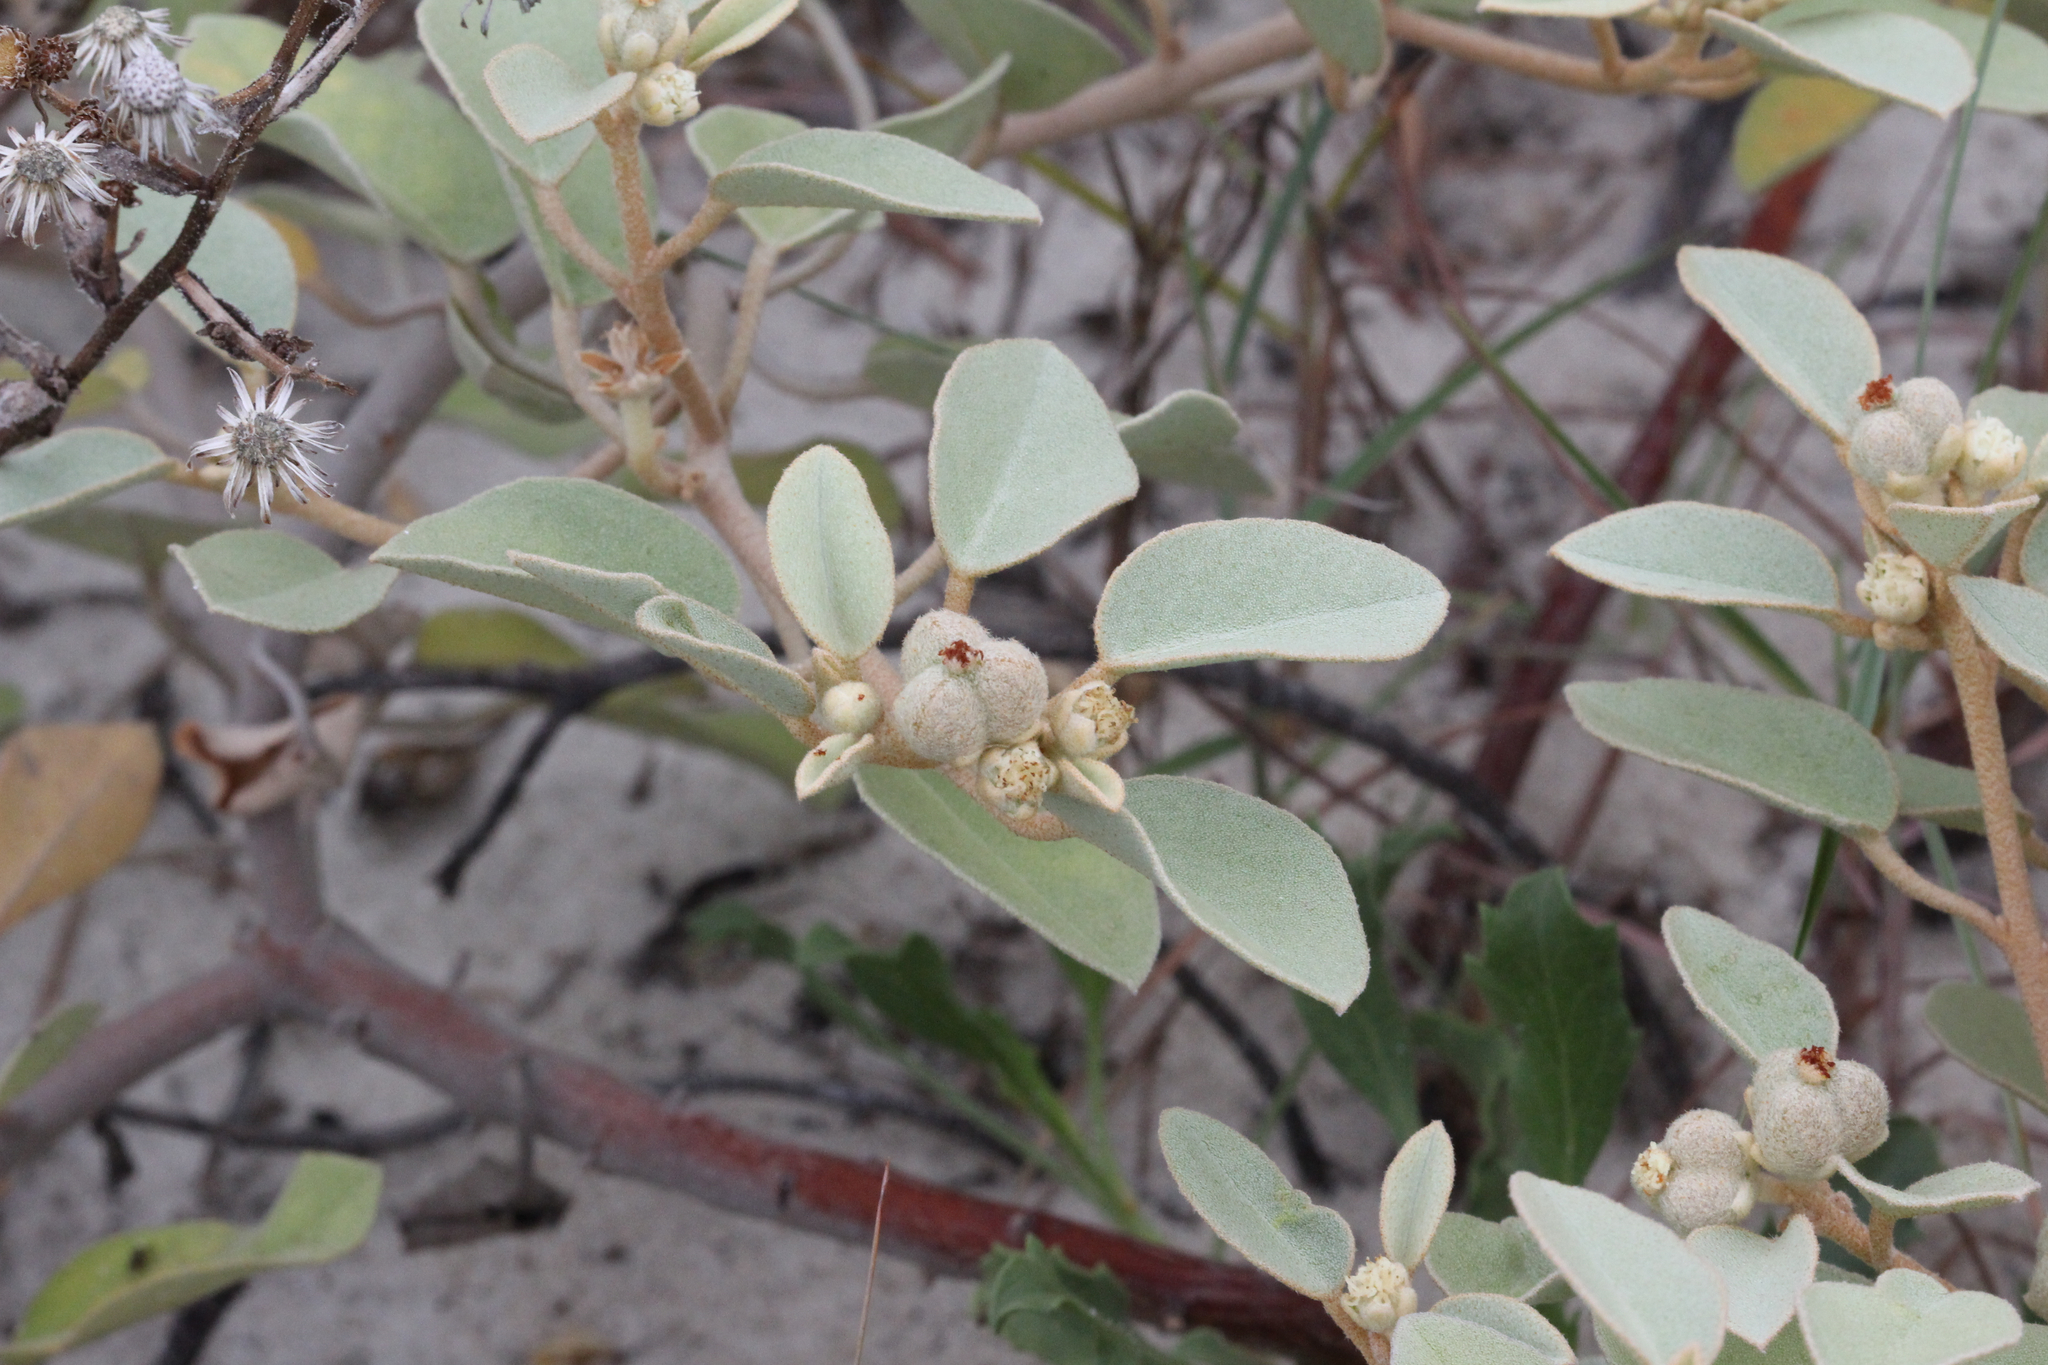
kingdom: Plantae
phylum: Tracheophyta
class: Magnoliopsida
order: Malpighiales
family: Euphorbiaceae
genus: Croton
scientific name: Croton punctatus
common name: Beach-tea
